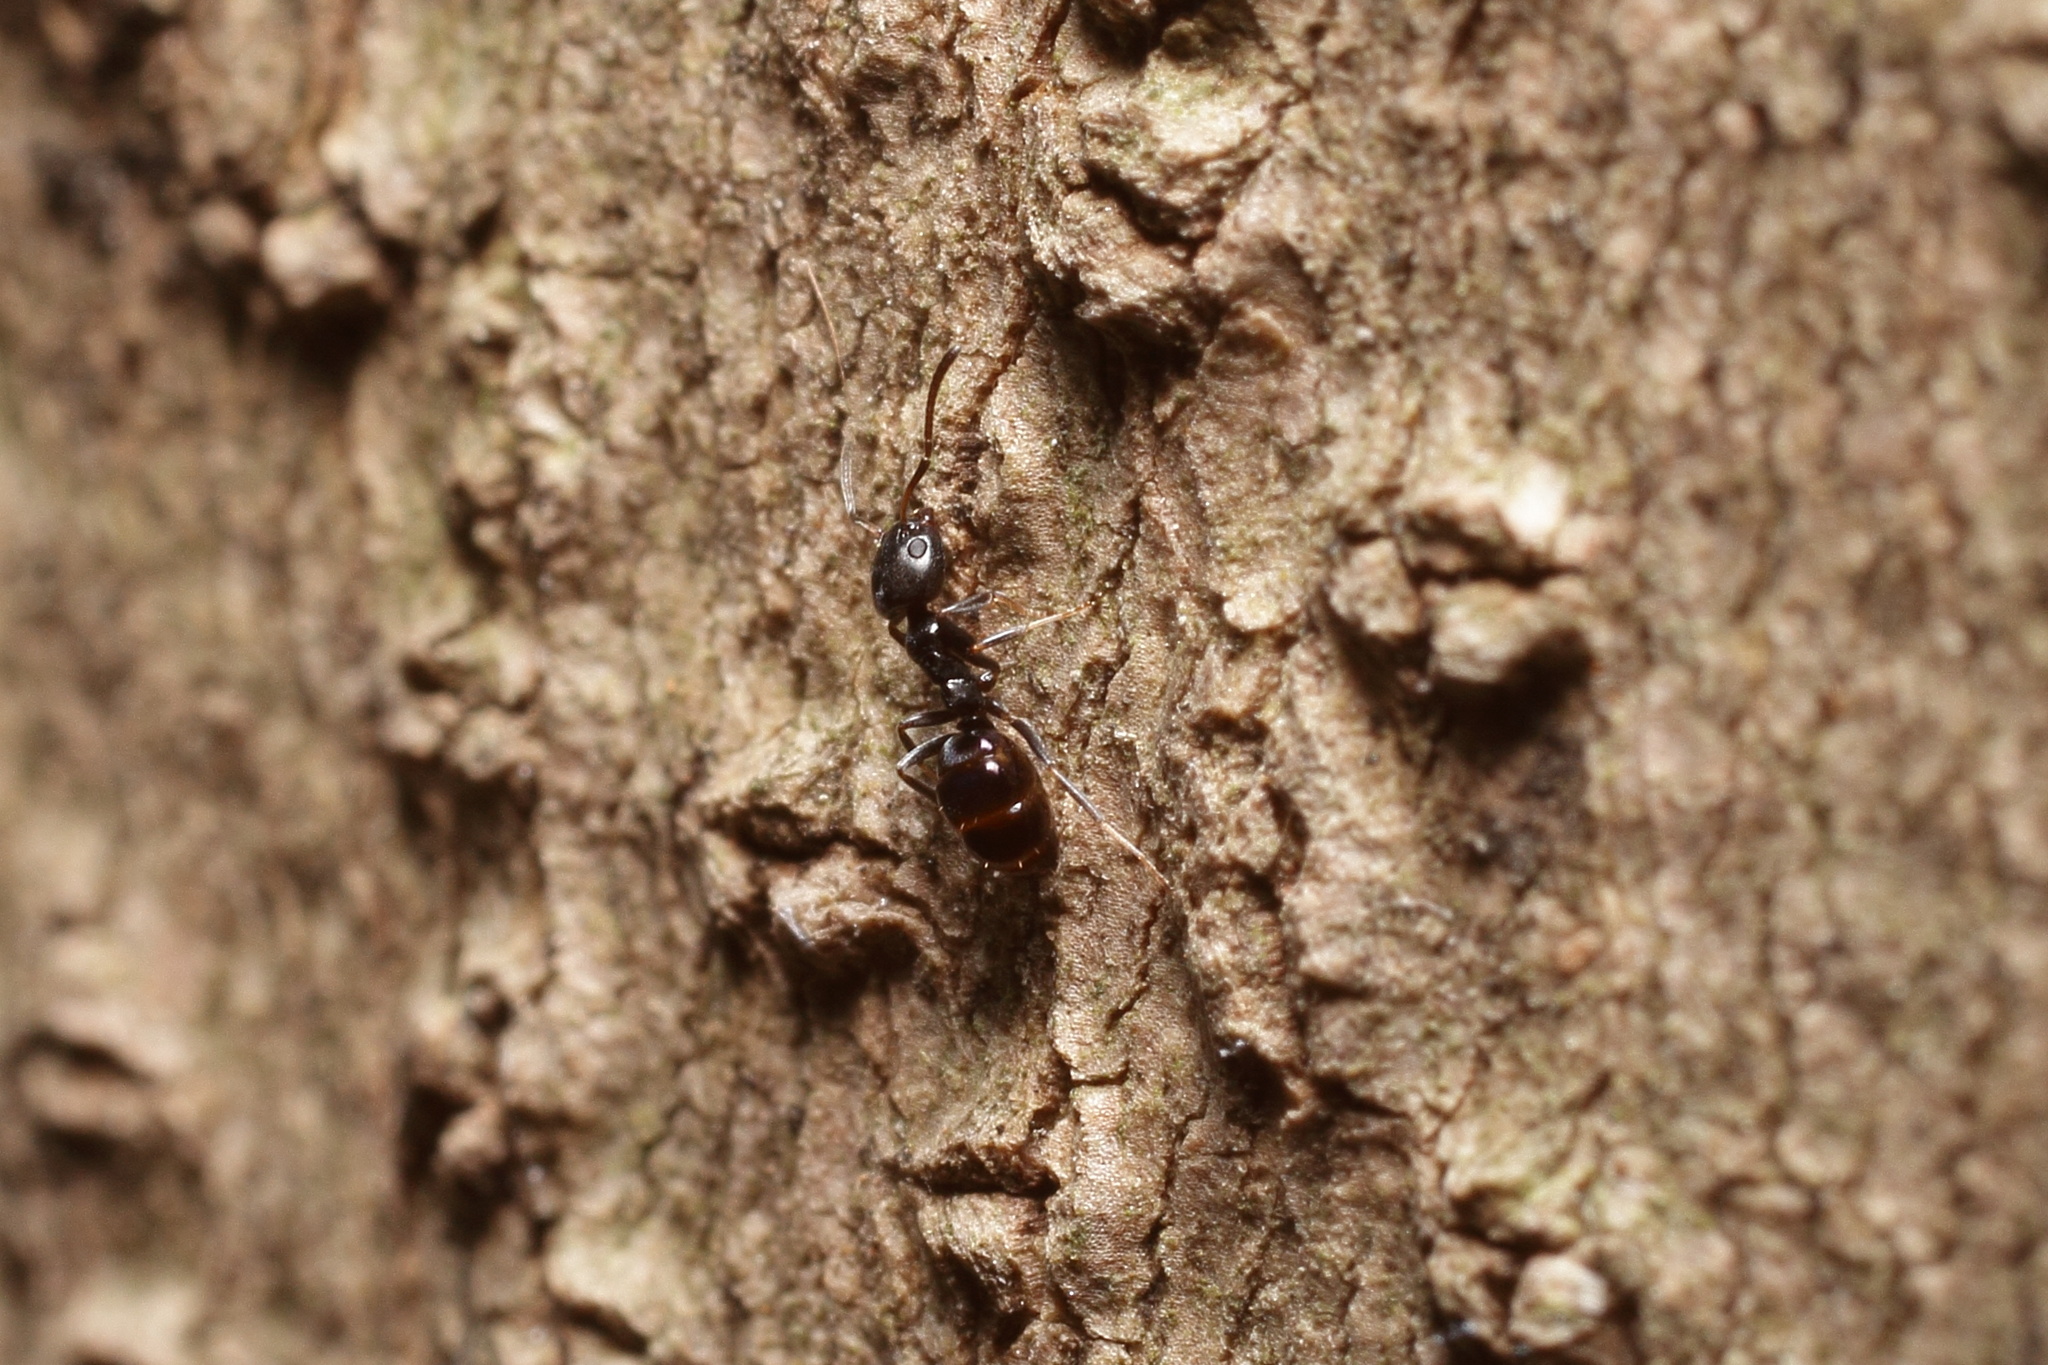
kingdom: Animalia
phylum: Arthropoda
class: Insecta
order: Hymenoptera
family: Formicidae
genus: Ochetellus
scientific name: Ochetellus glaber
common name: Ant
